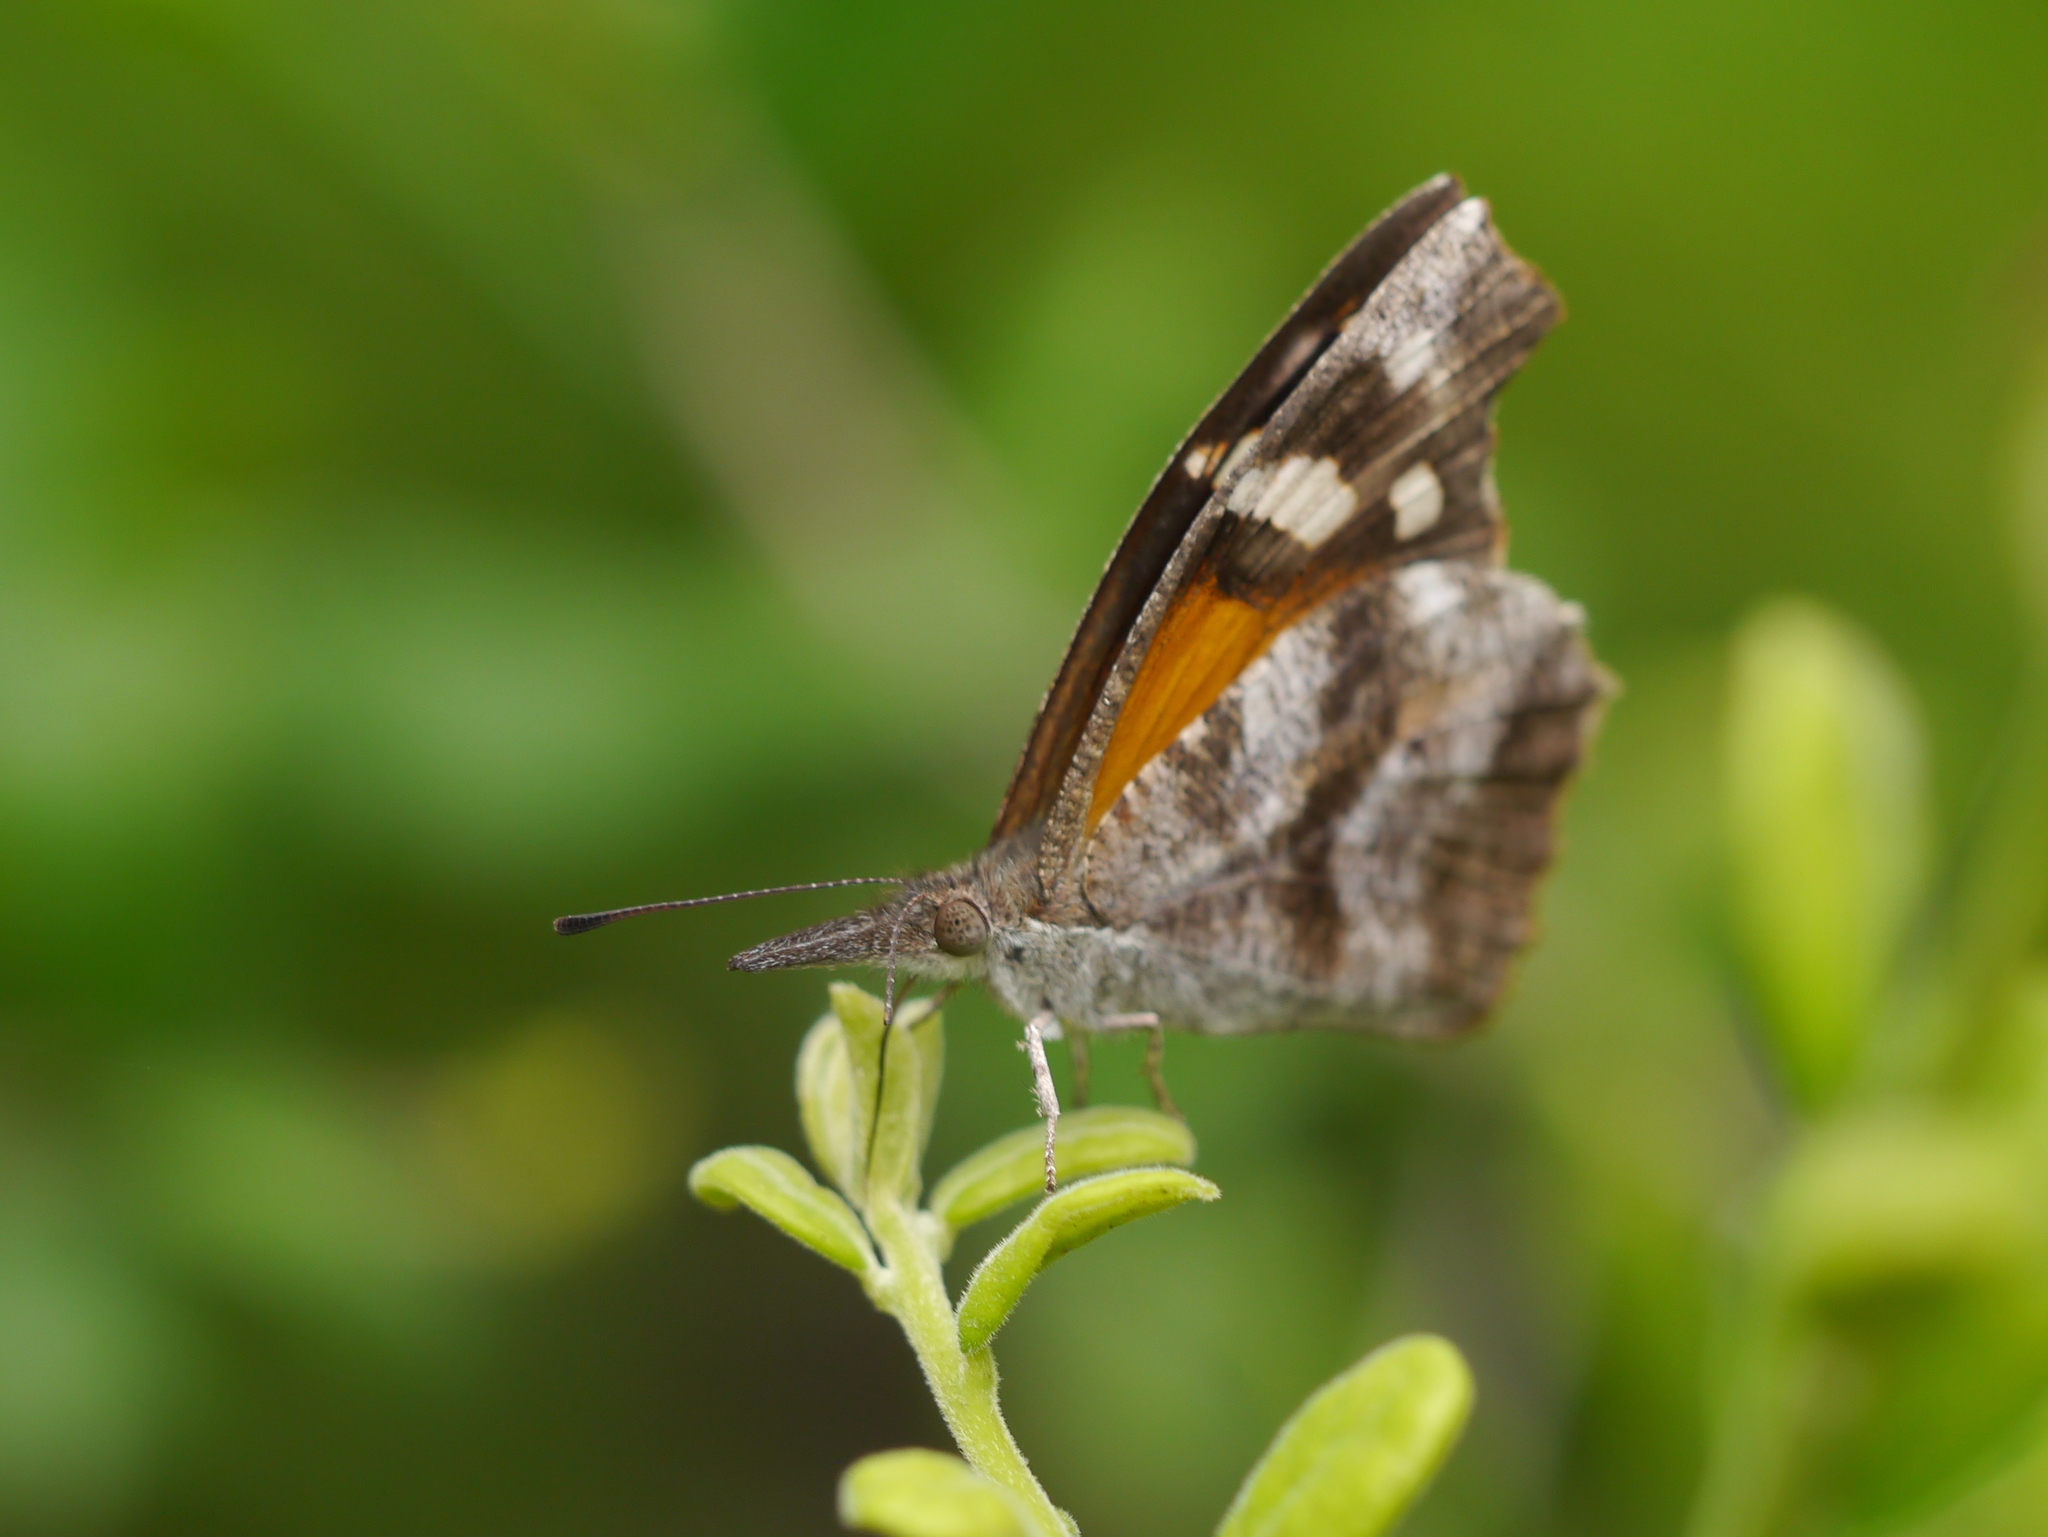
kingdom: Animalia
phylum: Arthropoda
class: Insecta
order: Lepidoptera
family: Nymphalidae
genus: Libytheana
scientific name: Libytheana carinenta
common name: American snout
